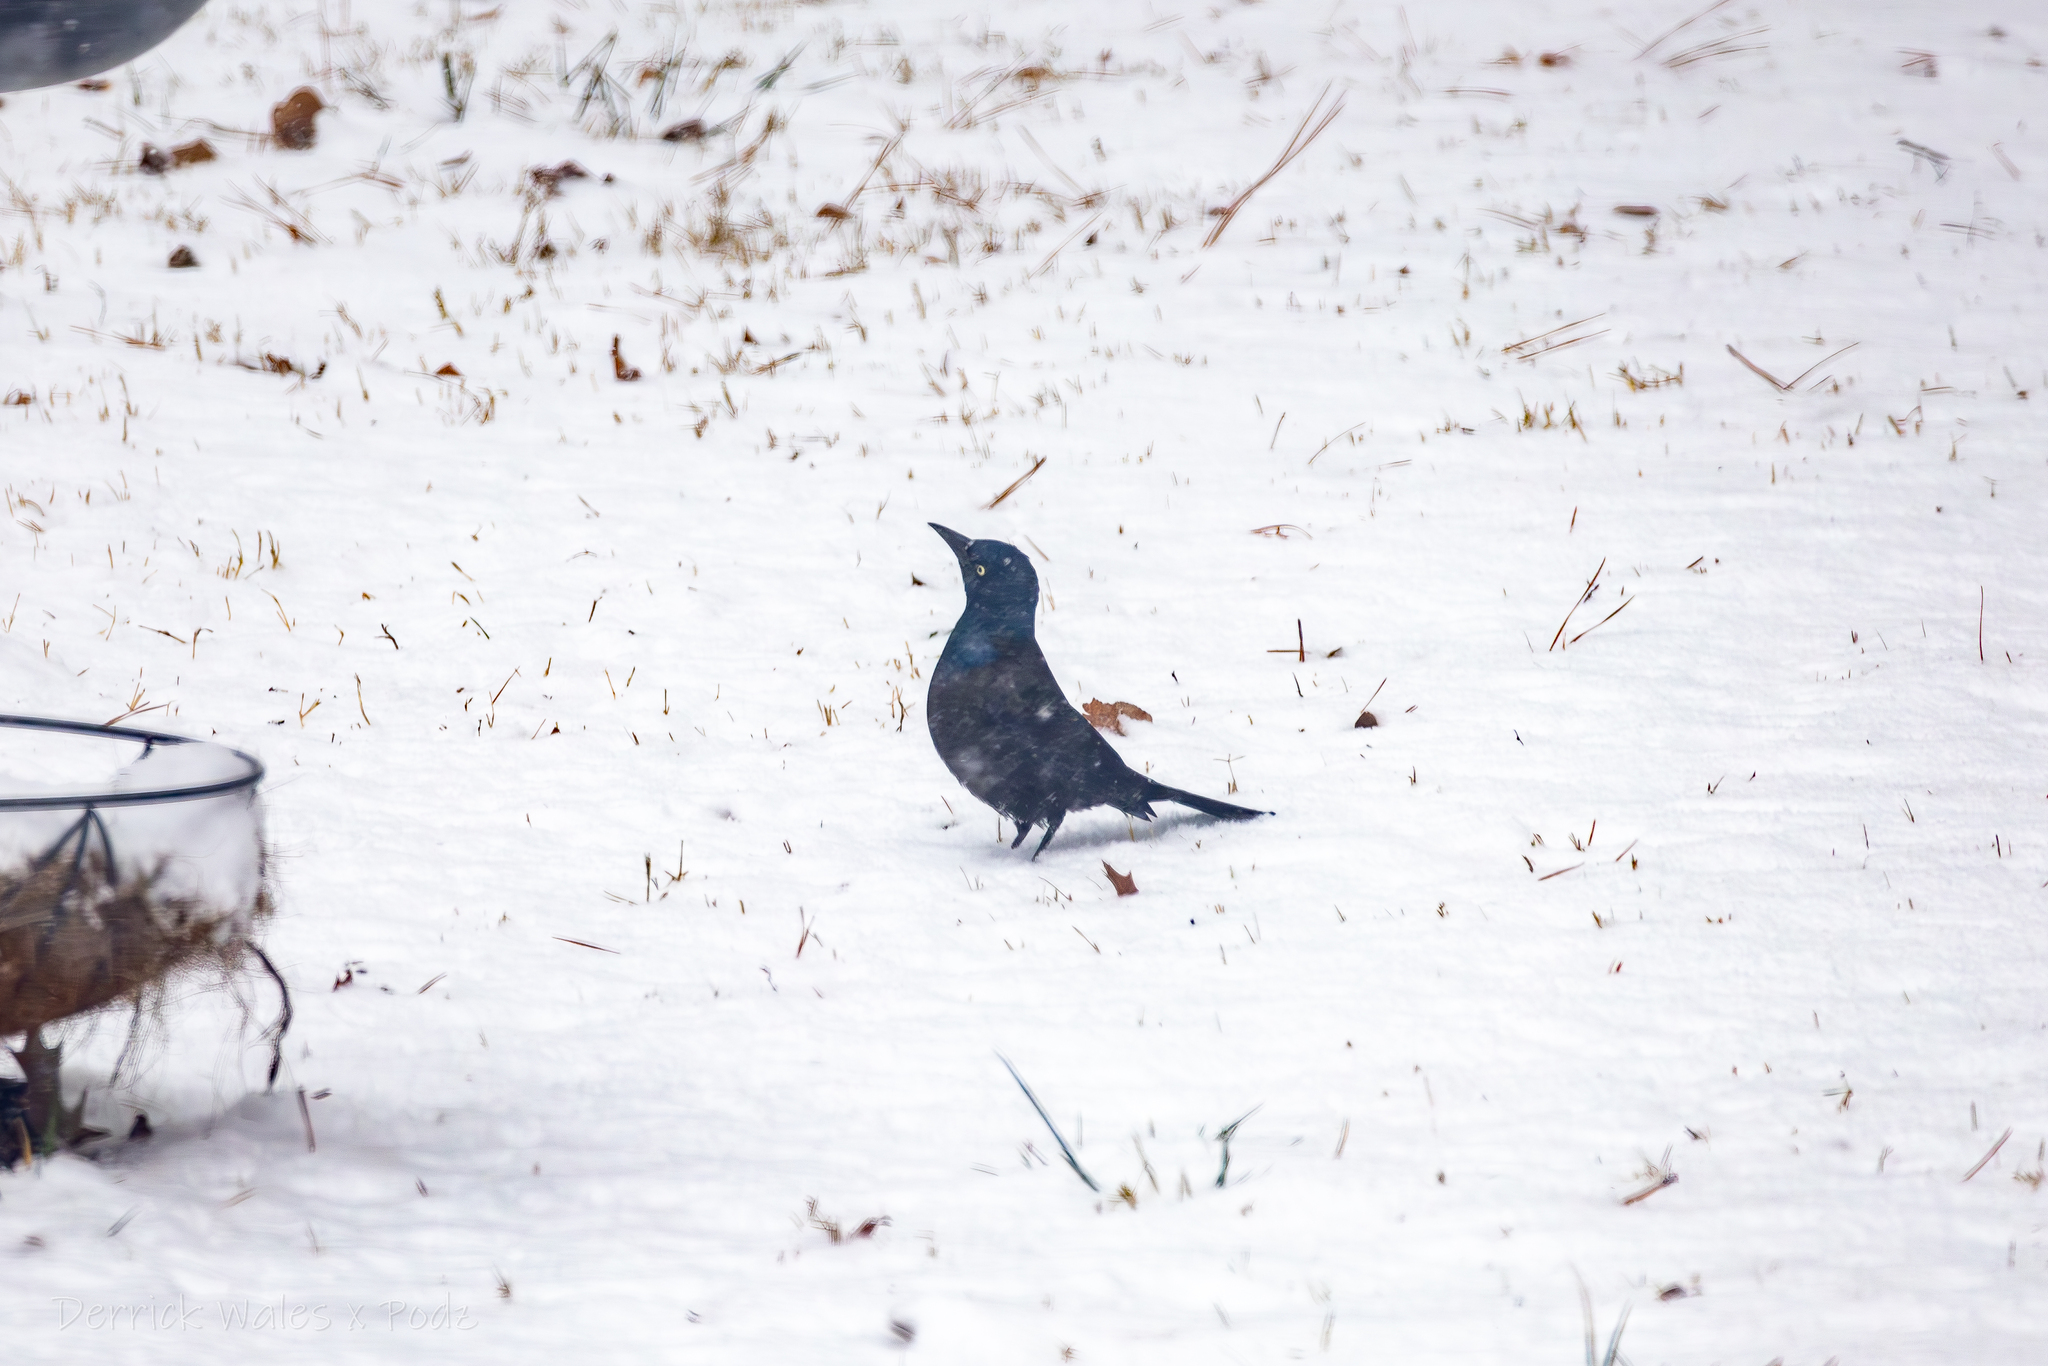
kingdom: Animalia
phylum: Chordata
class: Aves
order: Passeriformes
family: Icteridae
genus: Quiscalus
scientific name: Quiscalus quiscula
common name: Common grackle
